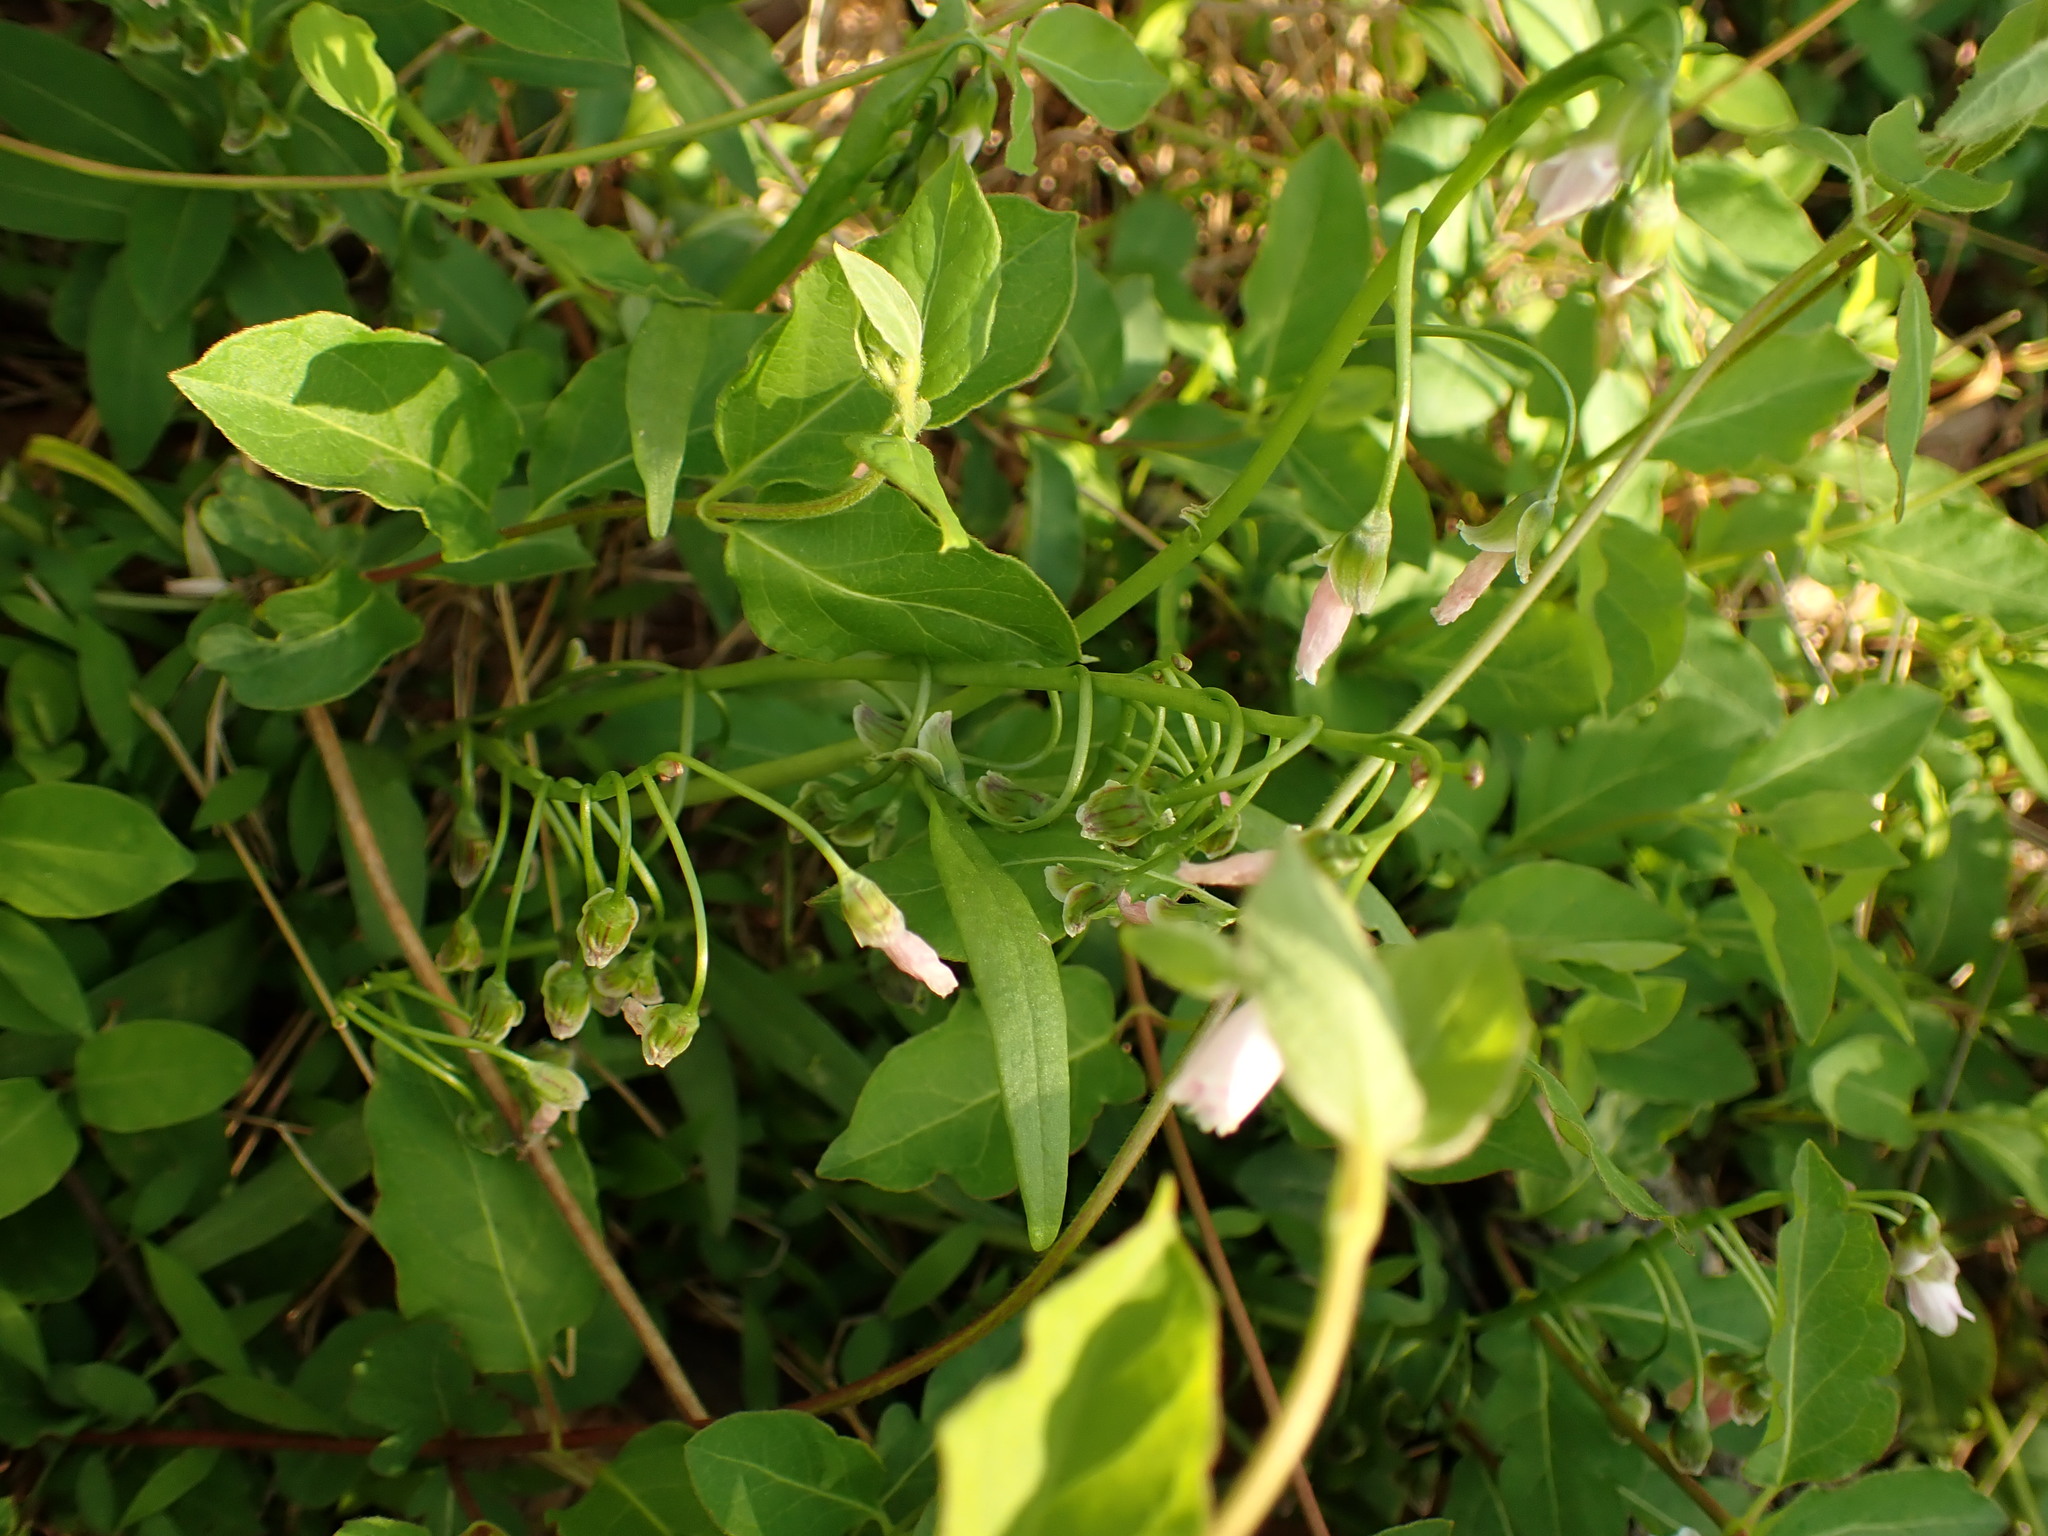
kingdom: Plantae
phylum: Tracheophyta
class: Magnoliopsida
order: Caryophyllales
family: Montiaceae
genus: Claytonia
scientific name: Claytonia virginica
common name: Virginia springbeauty
